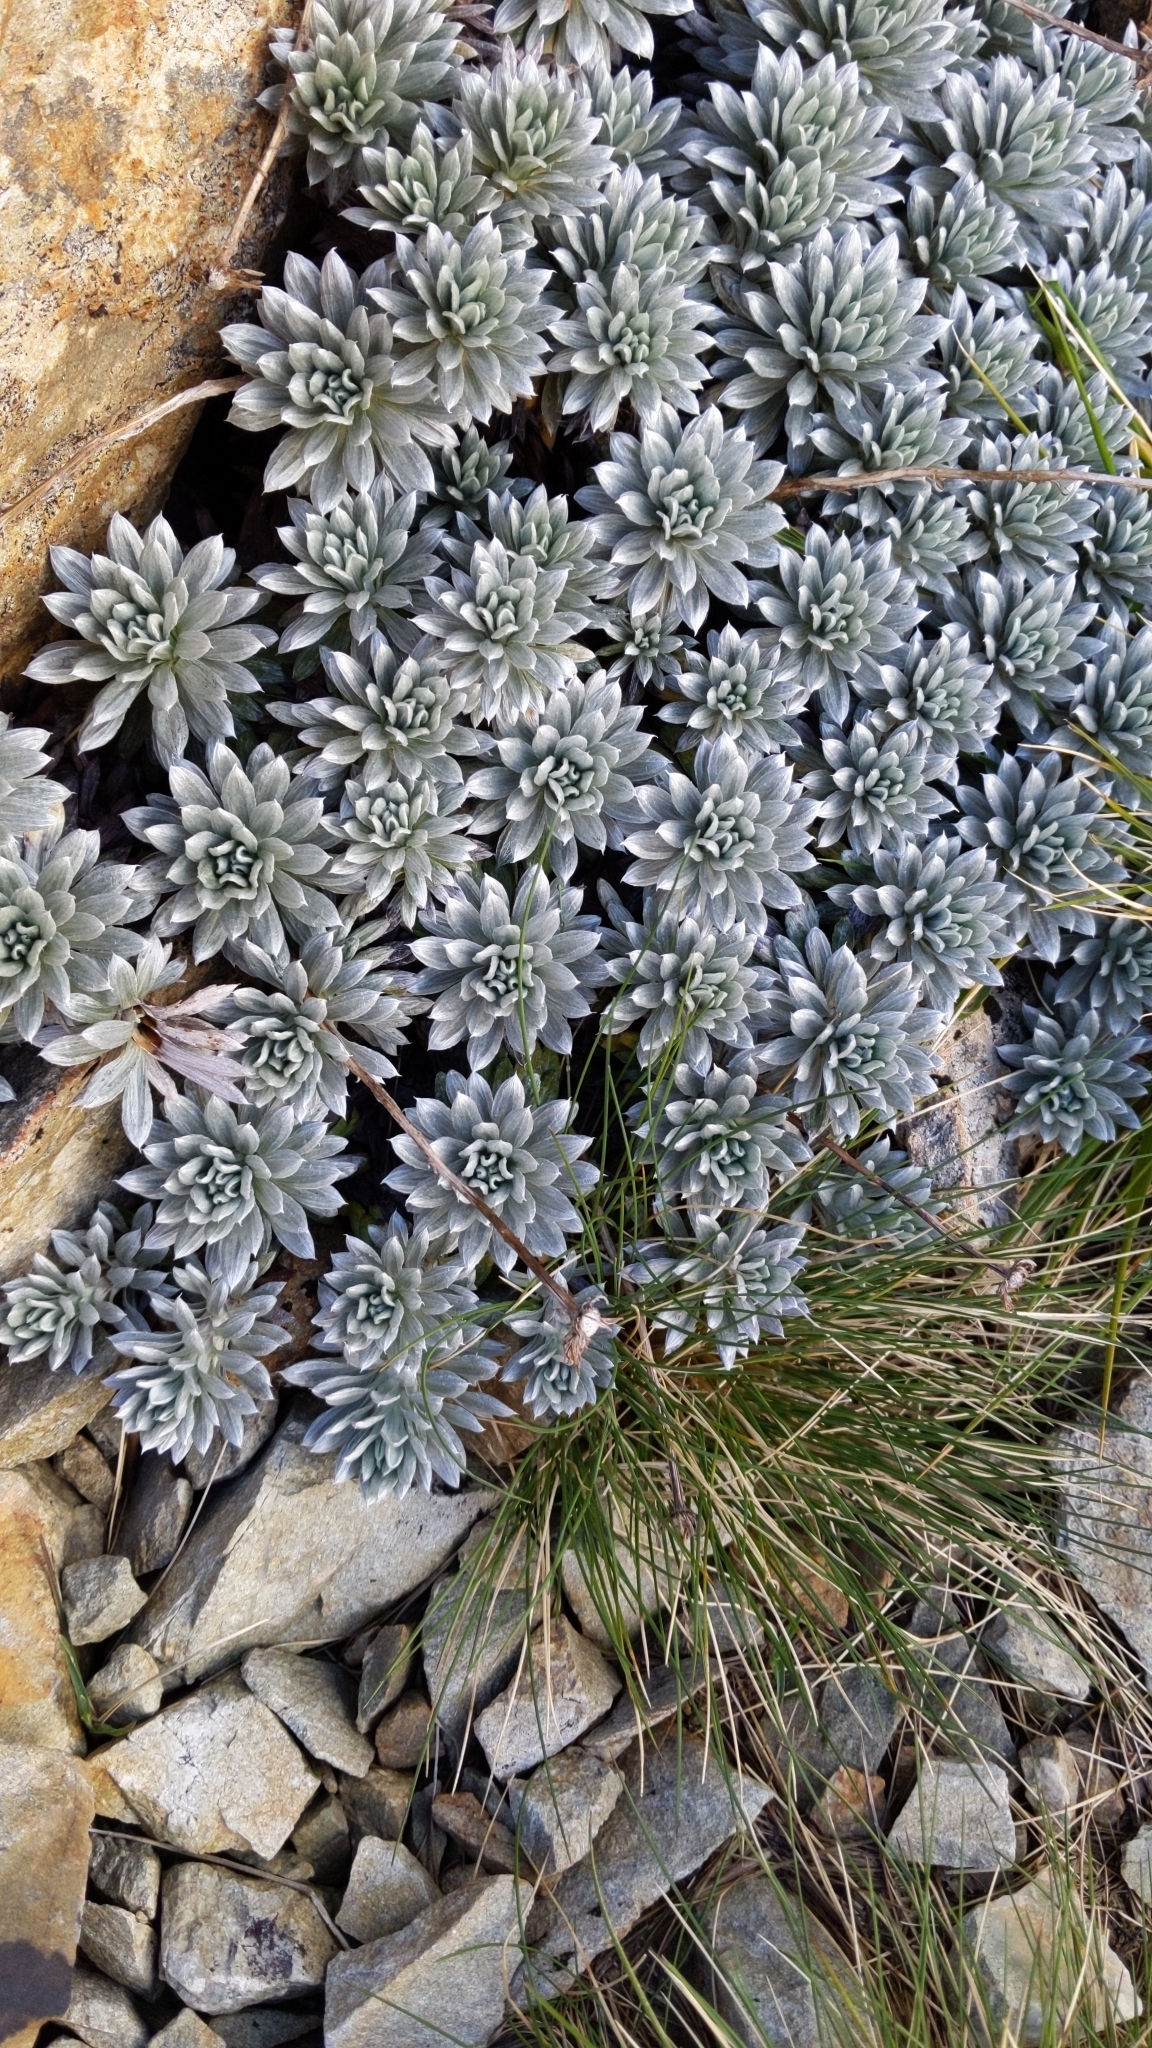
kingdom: Plantae
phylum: Tracheophyta
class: Magnoliopsida
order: Asterales
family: Asteraceae
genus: Celmisia
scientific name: Celmisia hectorii
